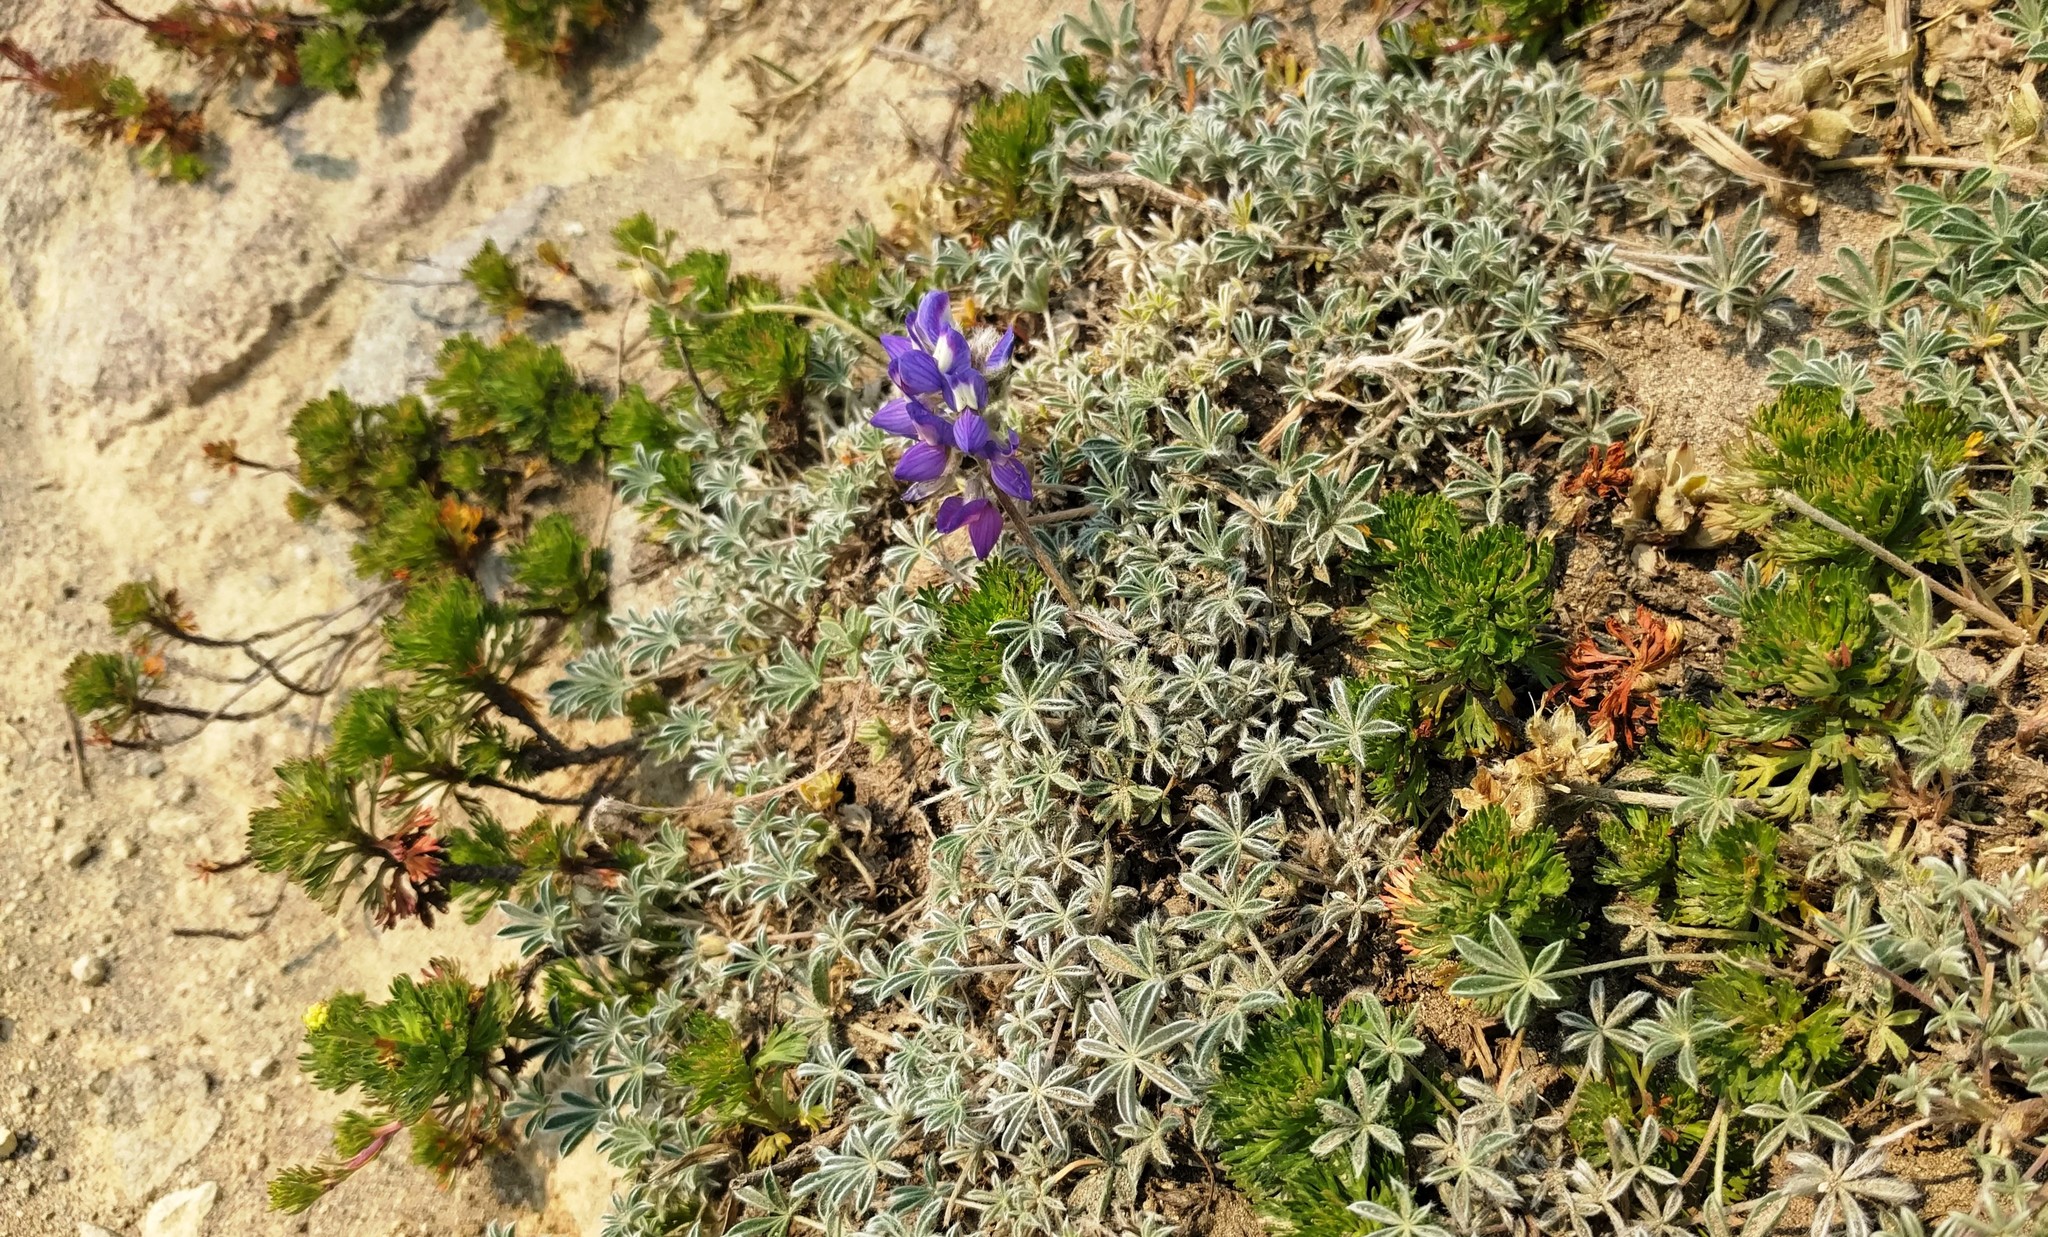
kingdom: Plantae
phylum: Tracheophyta
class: Magnoliopsida
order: Fabales
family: Fabaceae
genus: Lupinus
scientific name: Lupinus sellulus
